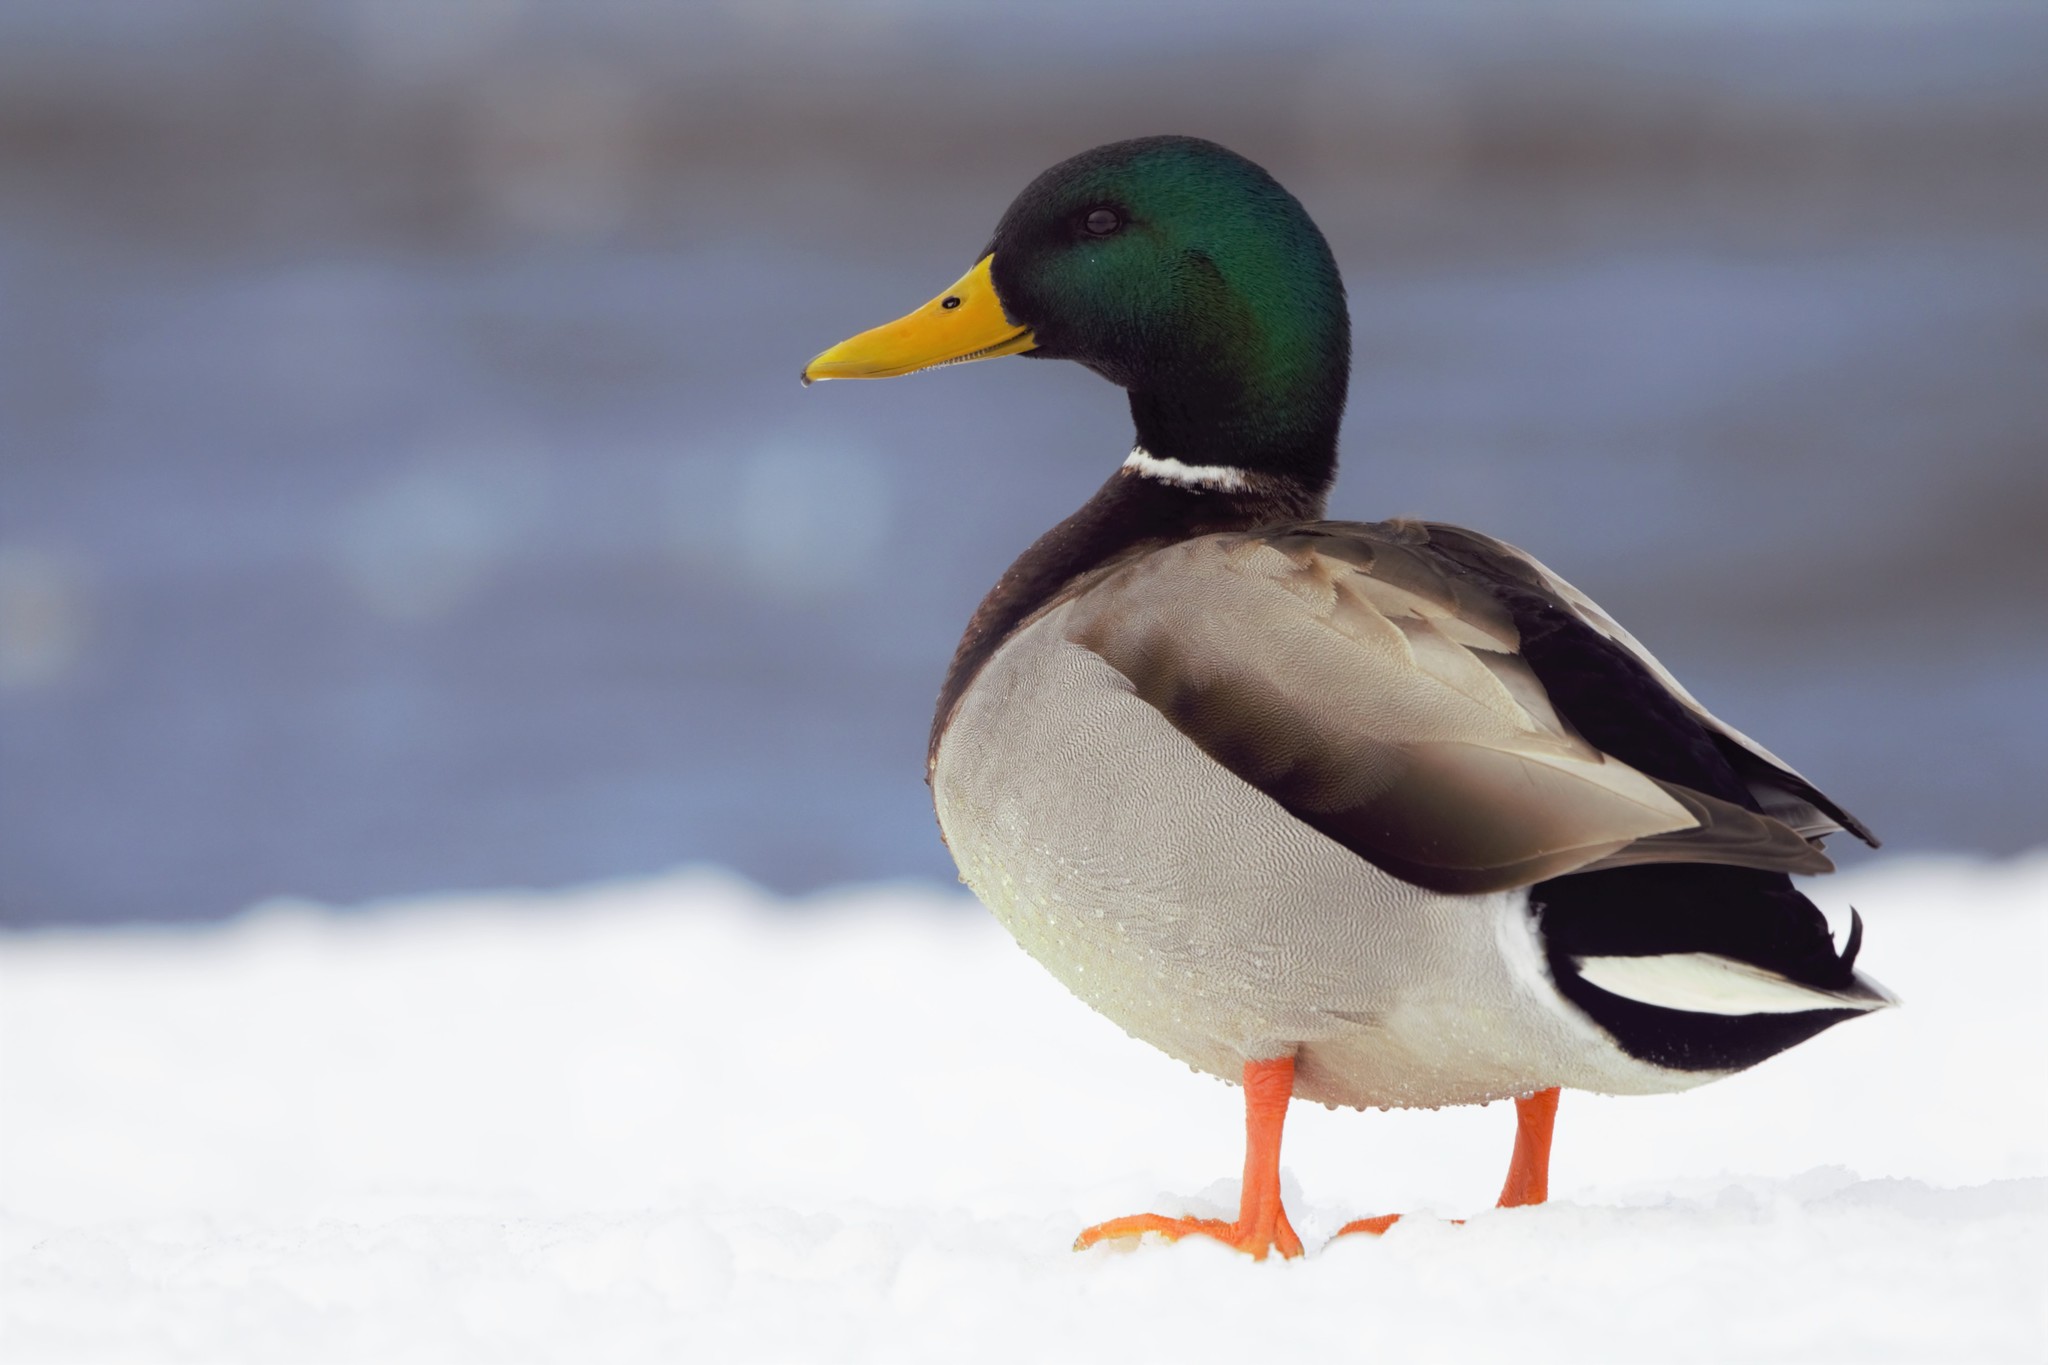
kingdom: Animalia
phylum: Chordata
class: Aves
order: Anseriformes
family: Anatidae
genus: Anas
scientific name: Anas platyrhynchos
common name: Mallard
